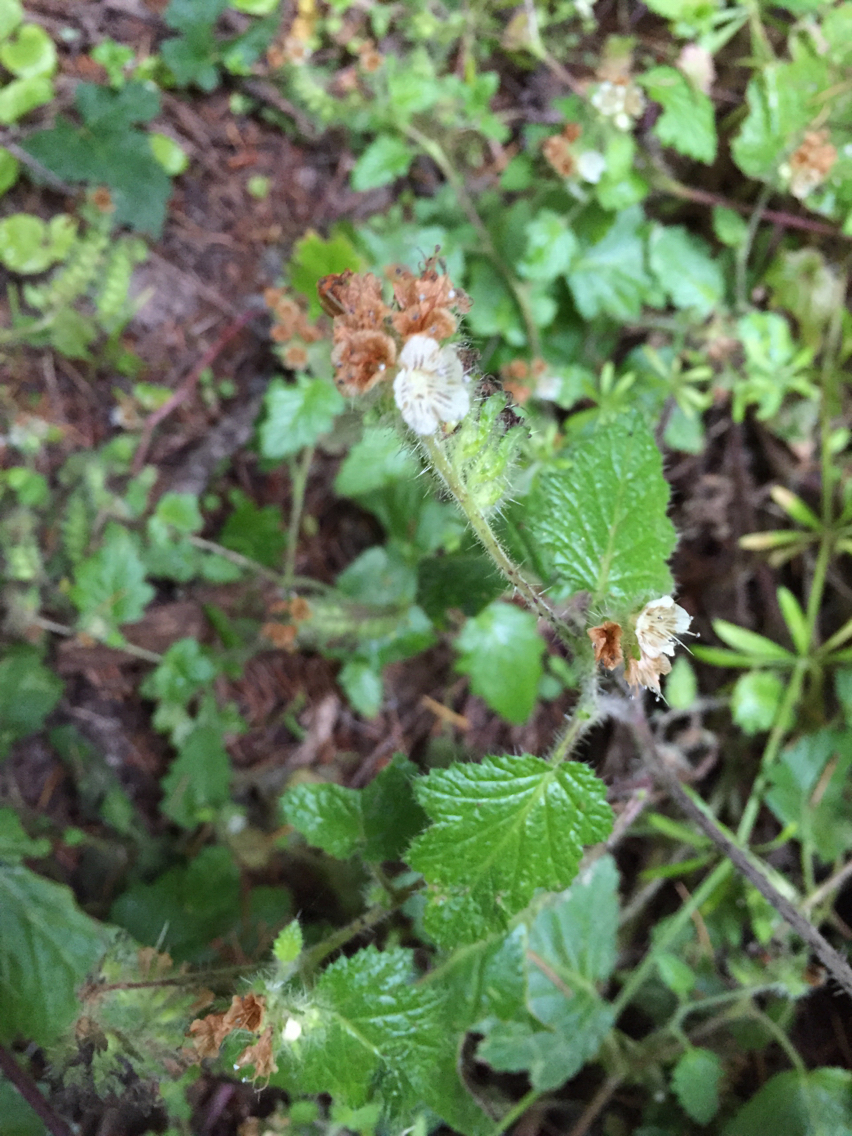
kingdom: Plantae
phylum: Tracheophyta
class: Magnoliopsida
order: Boraginales
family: Hydrophyllaceae
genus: Phacelia
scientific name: Phacelia malvifolia
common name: Mallow-leaf phacelia
